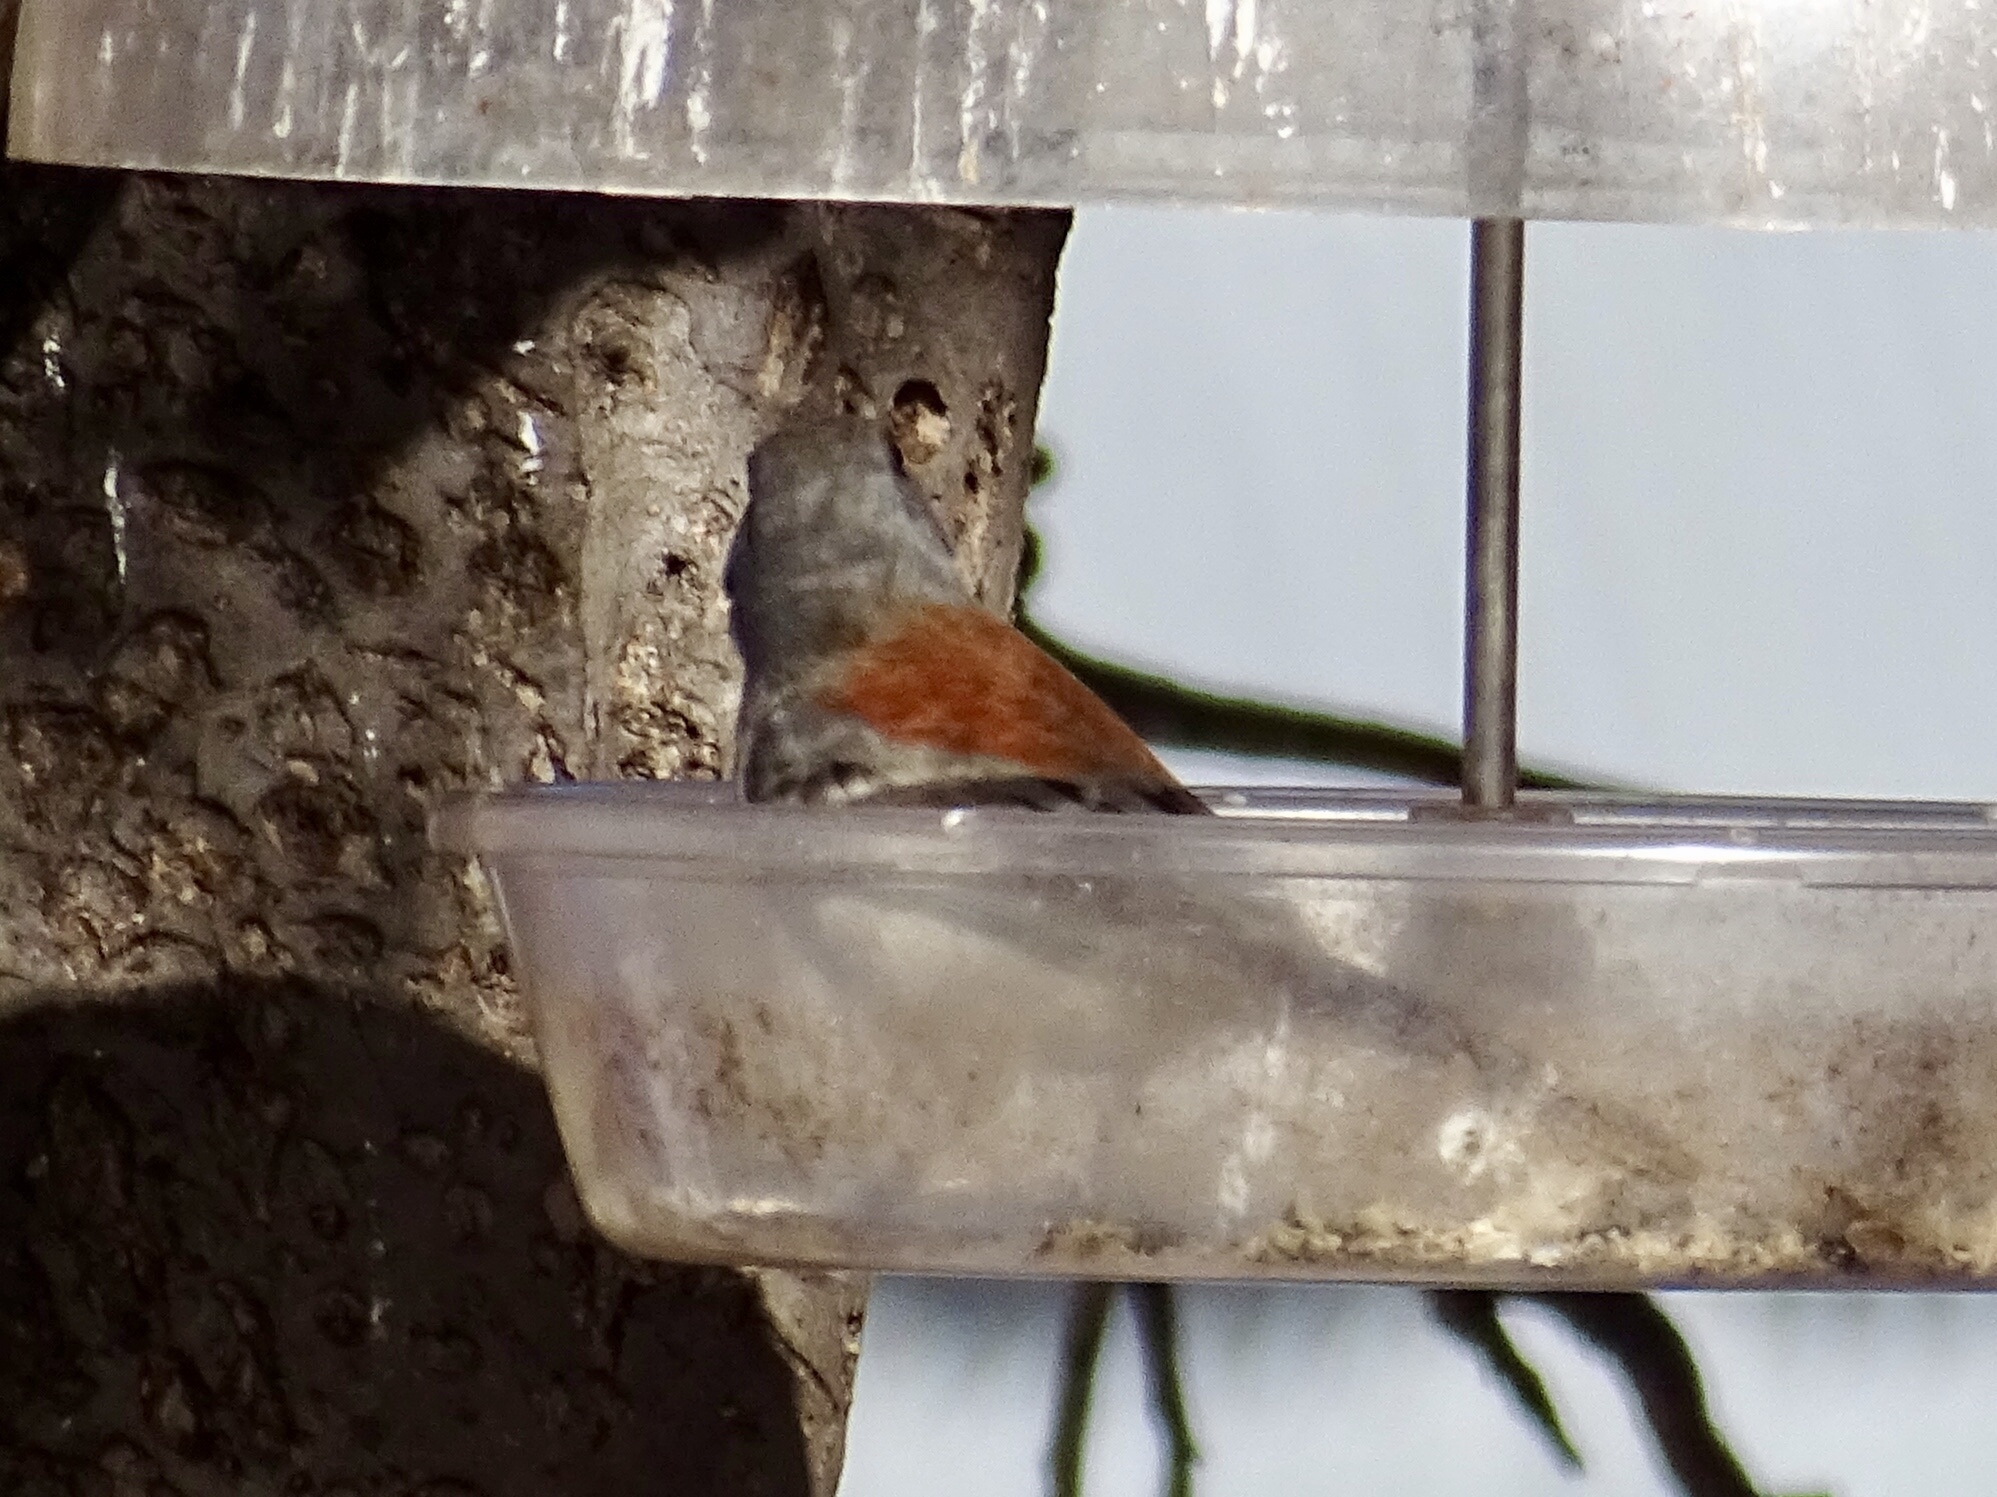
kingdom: Animalia
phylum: Chordata
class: Aves
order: Passeriformes
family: Passerellidae
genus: Junco
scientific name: Junco hyemalis
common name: Dark-eyed junco
